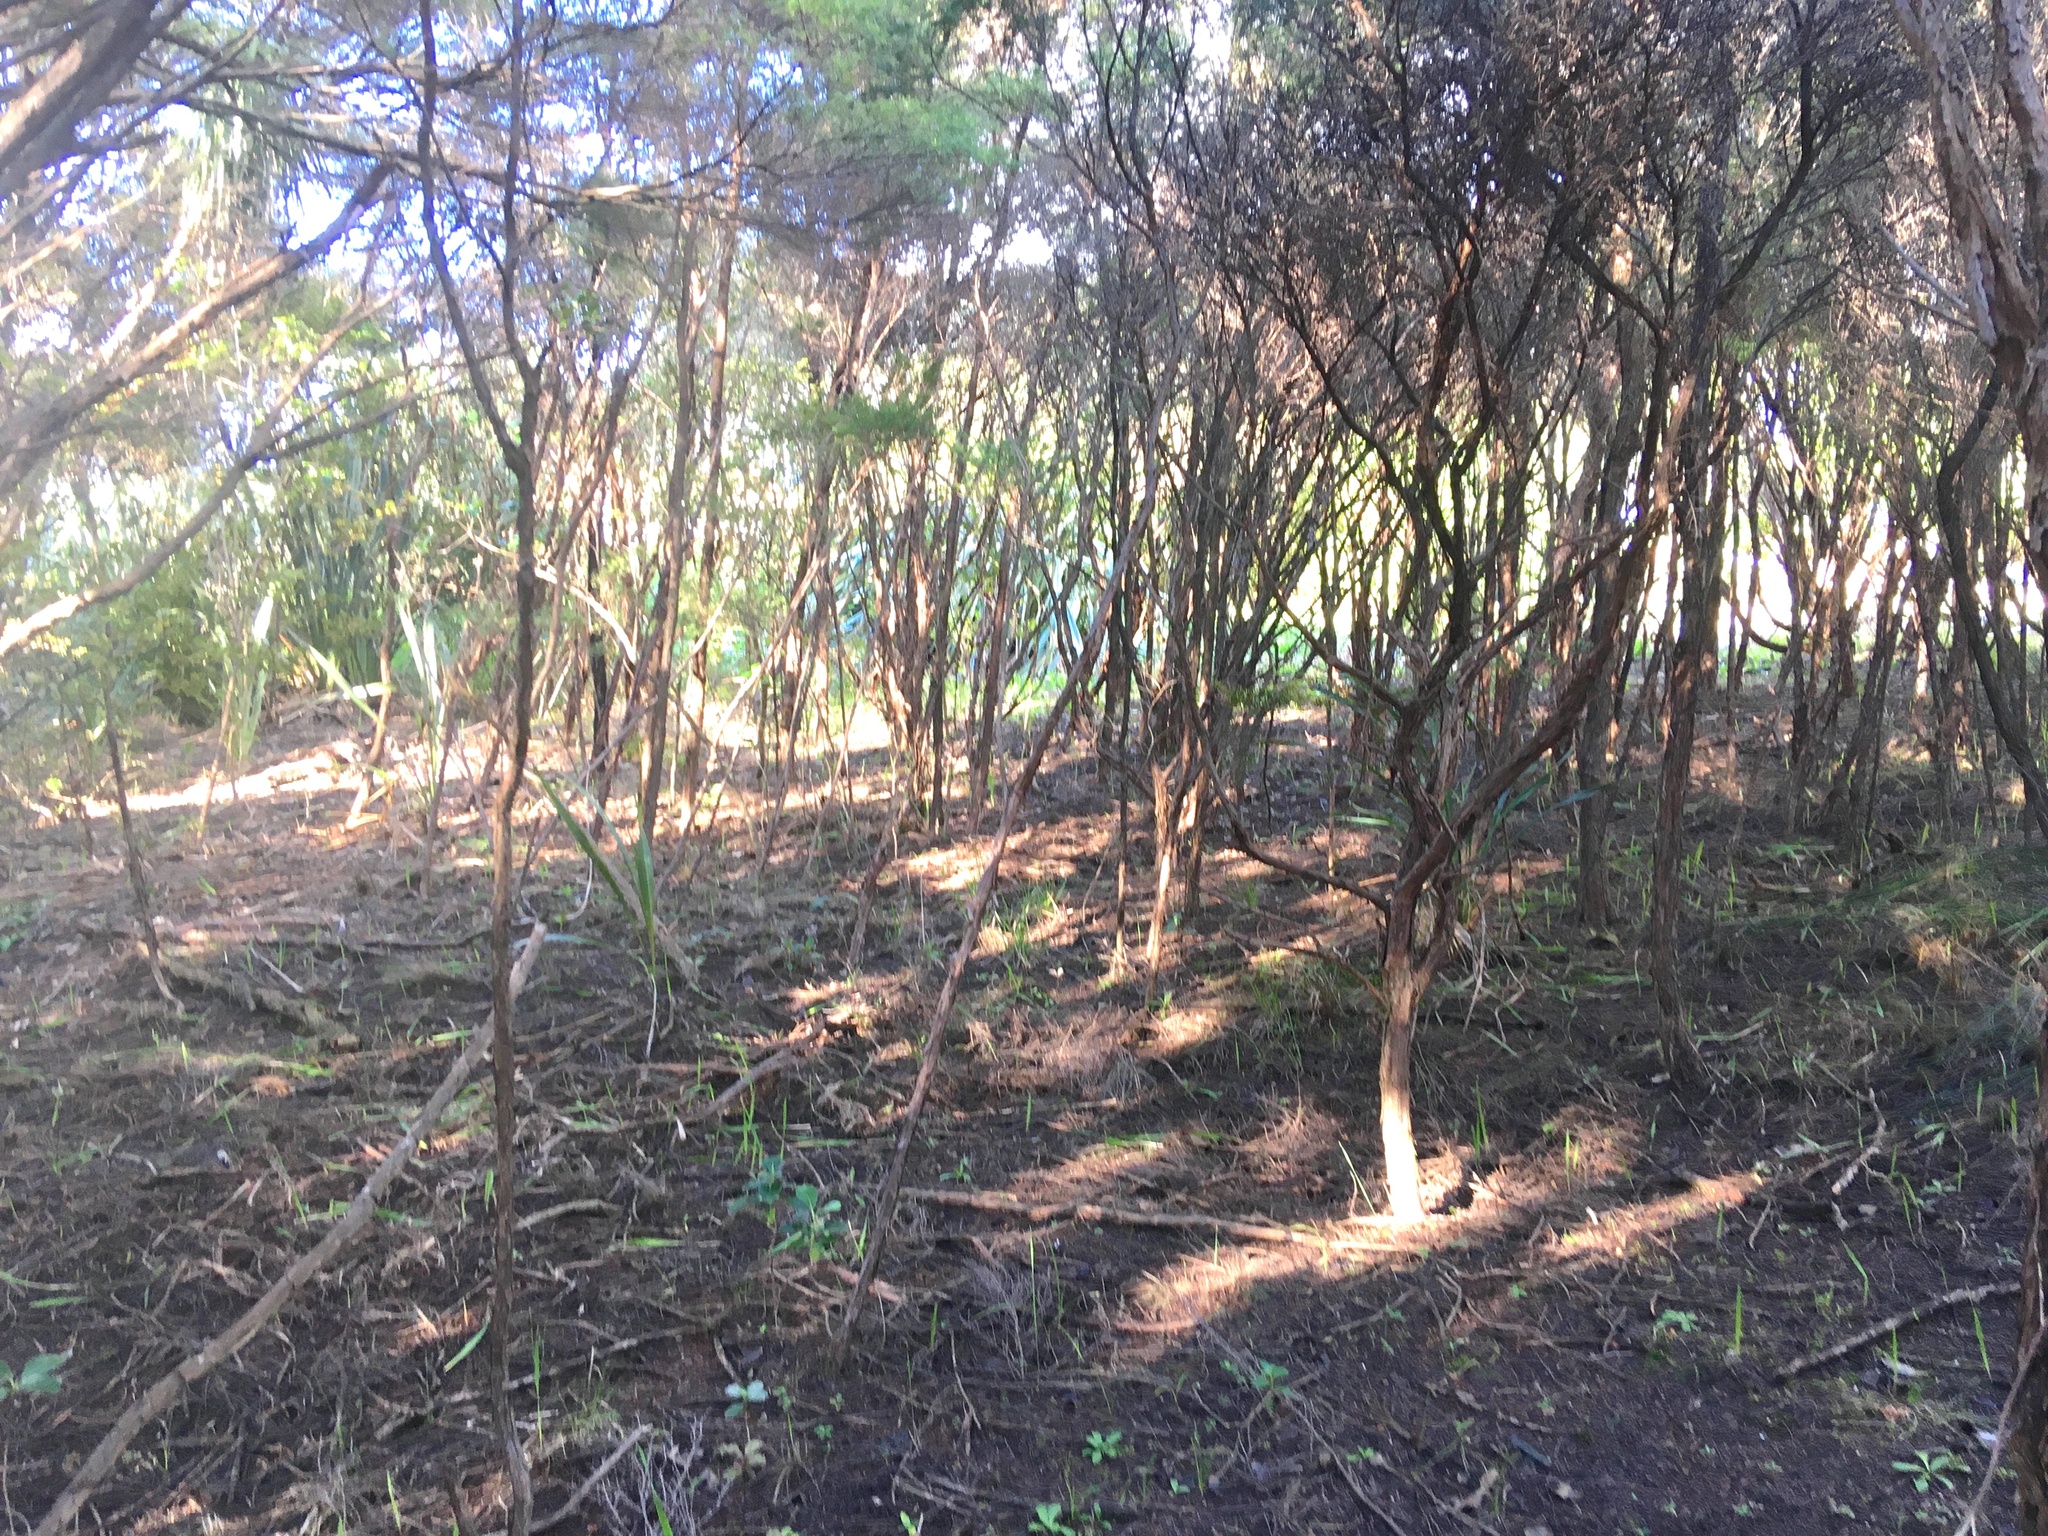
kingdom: Plantae
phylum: Tracheophyta
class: Magnoliopsida
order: Myrtales
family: Myrtaceae
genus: Leptospermum
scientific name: Leptospermum scoparium
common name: Broom tea-tree
